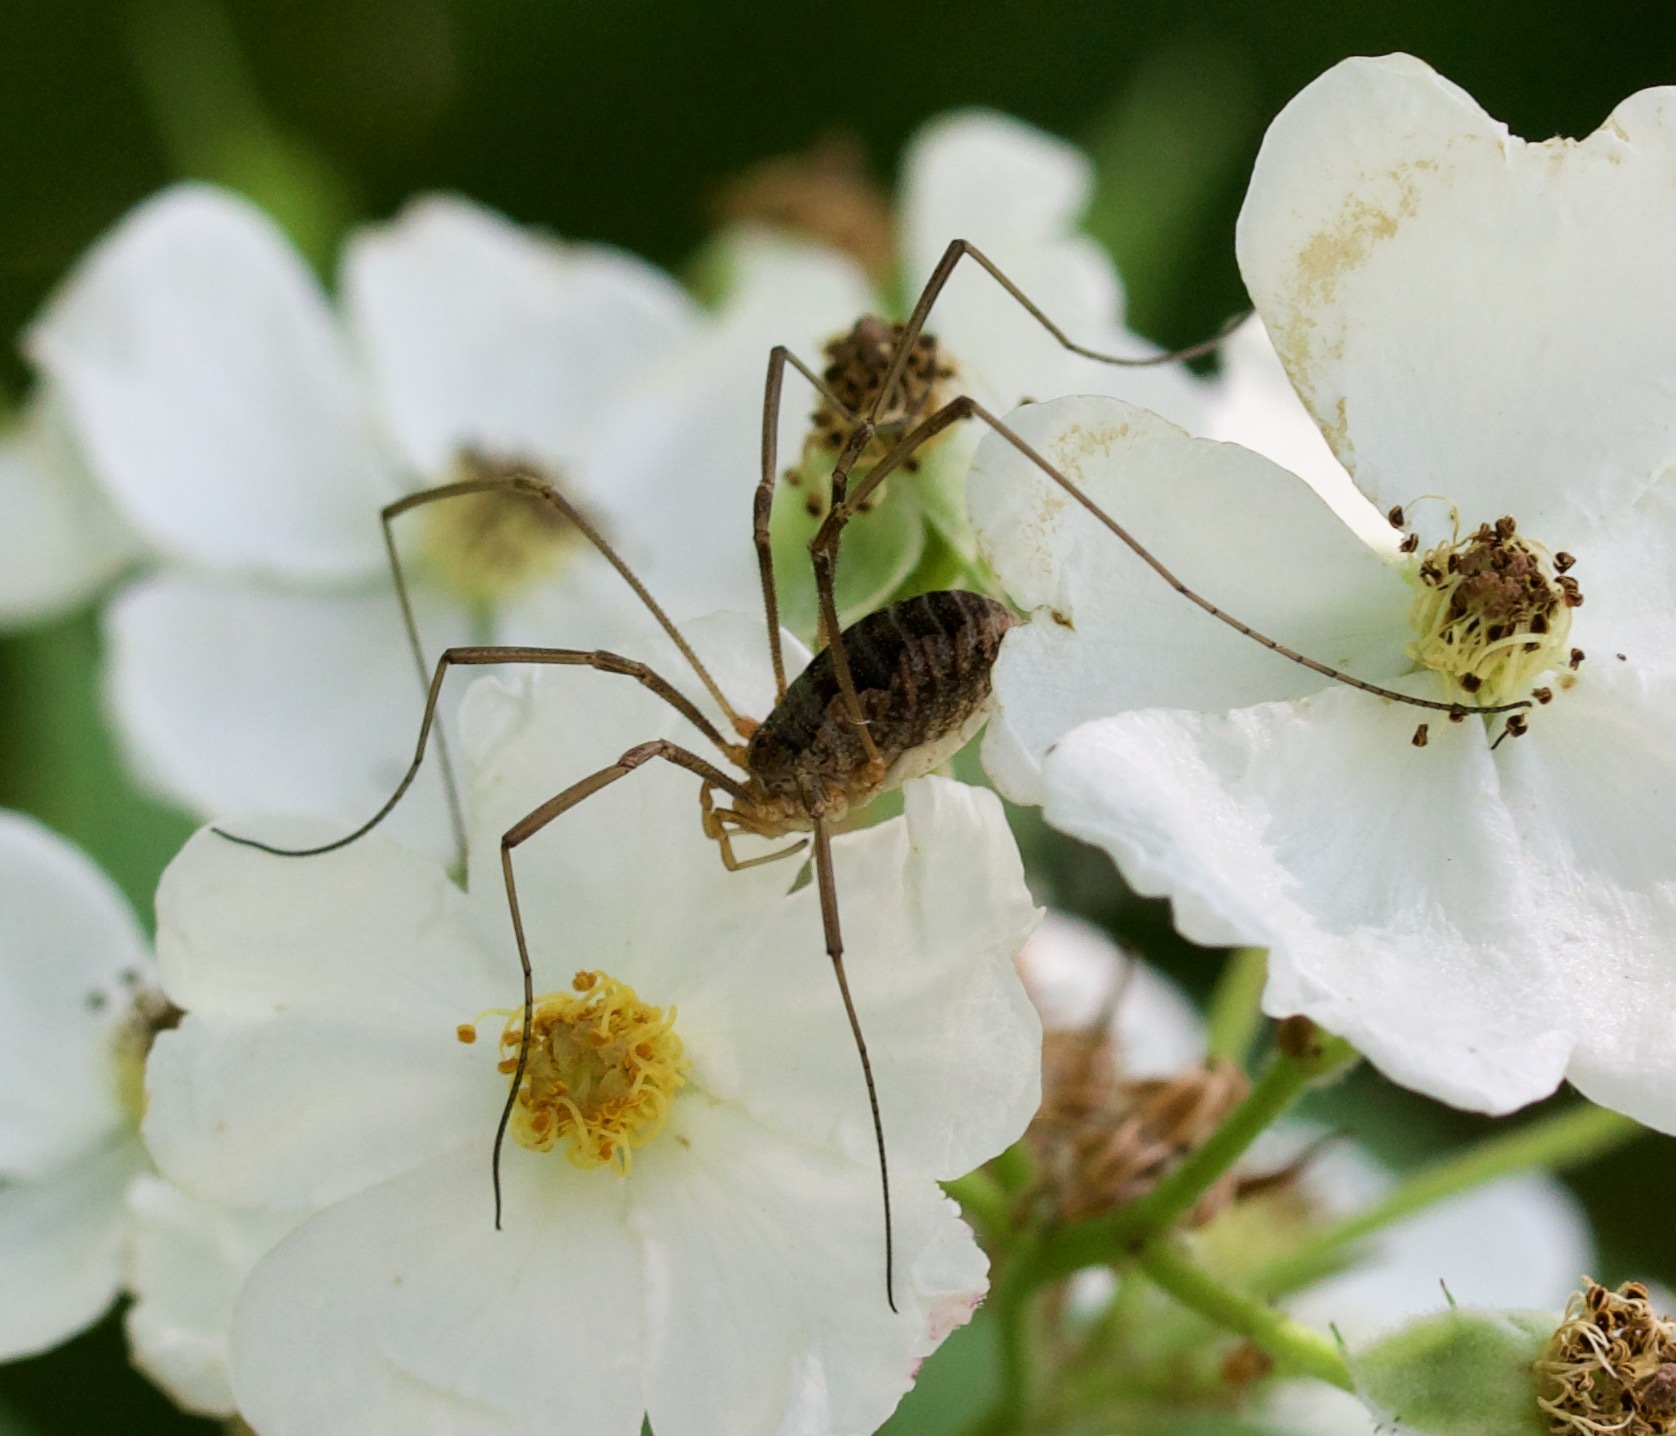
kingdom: Animalia
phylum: Arthropoda
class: Arachnida
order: Opiliones
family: Phalangiidae
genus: Phalangium
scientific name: Phalangium opilio
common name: Daddy longleg
